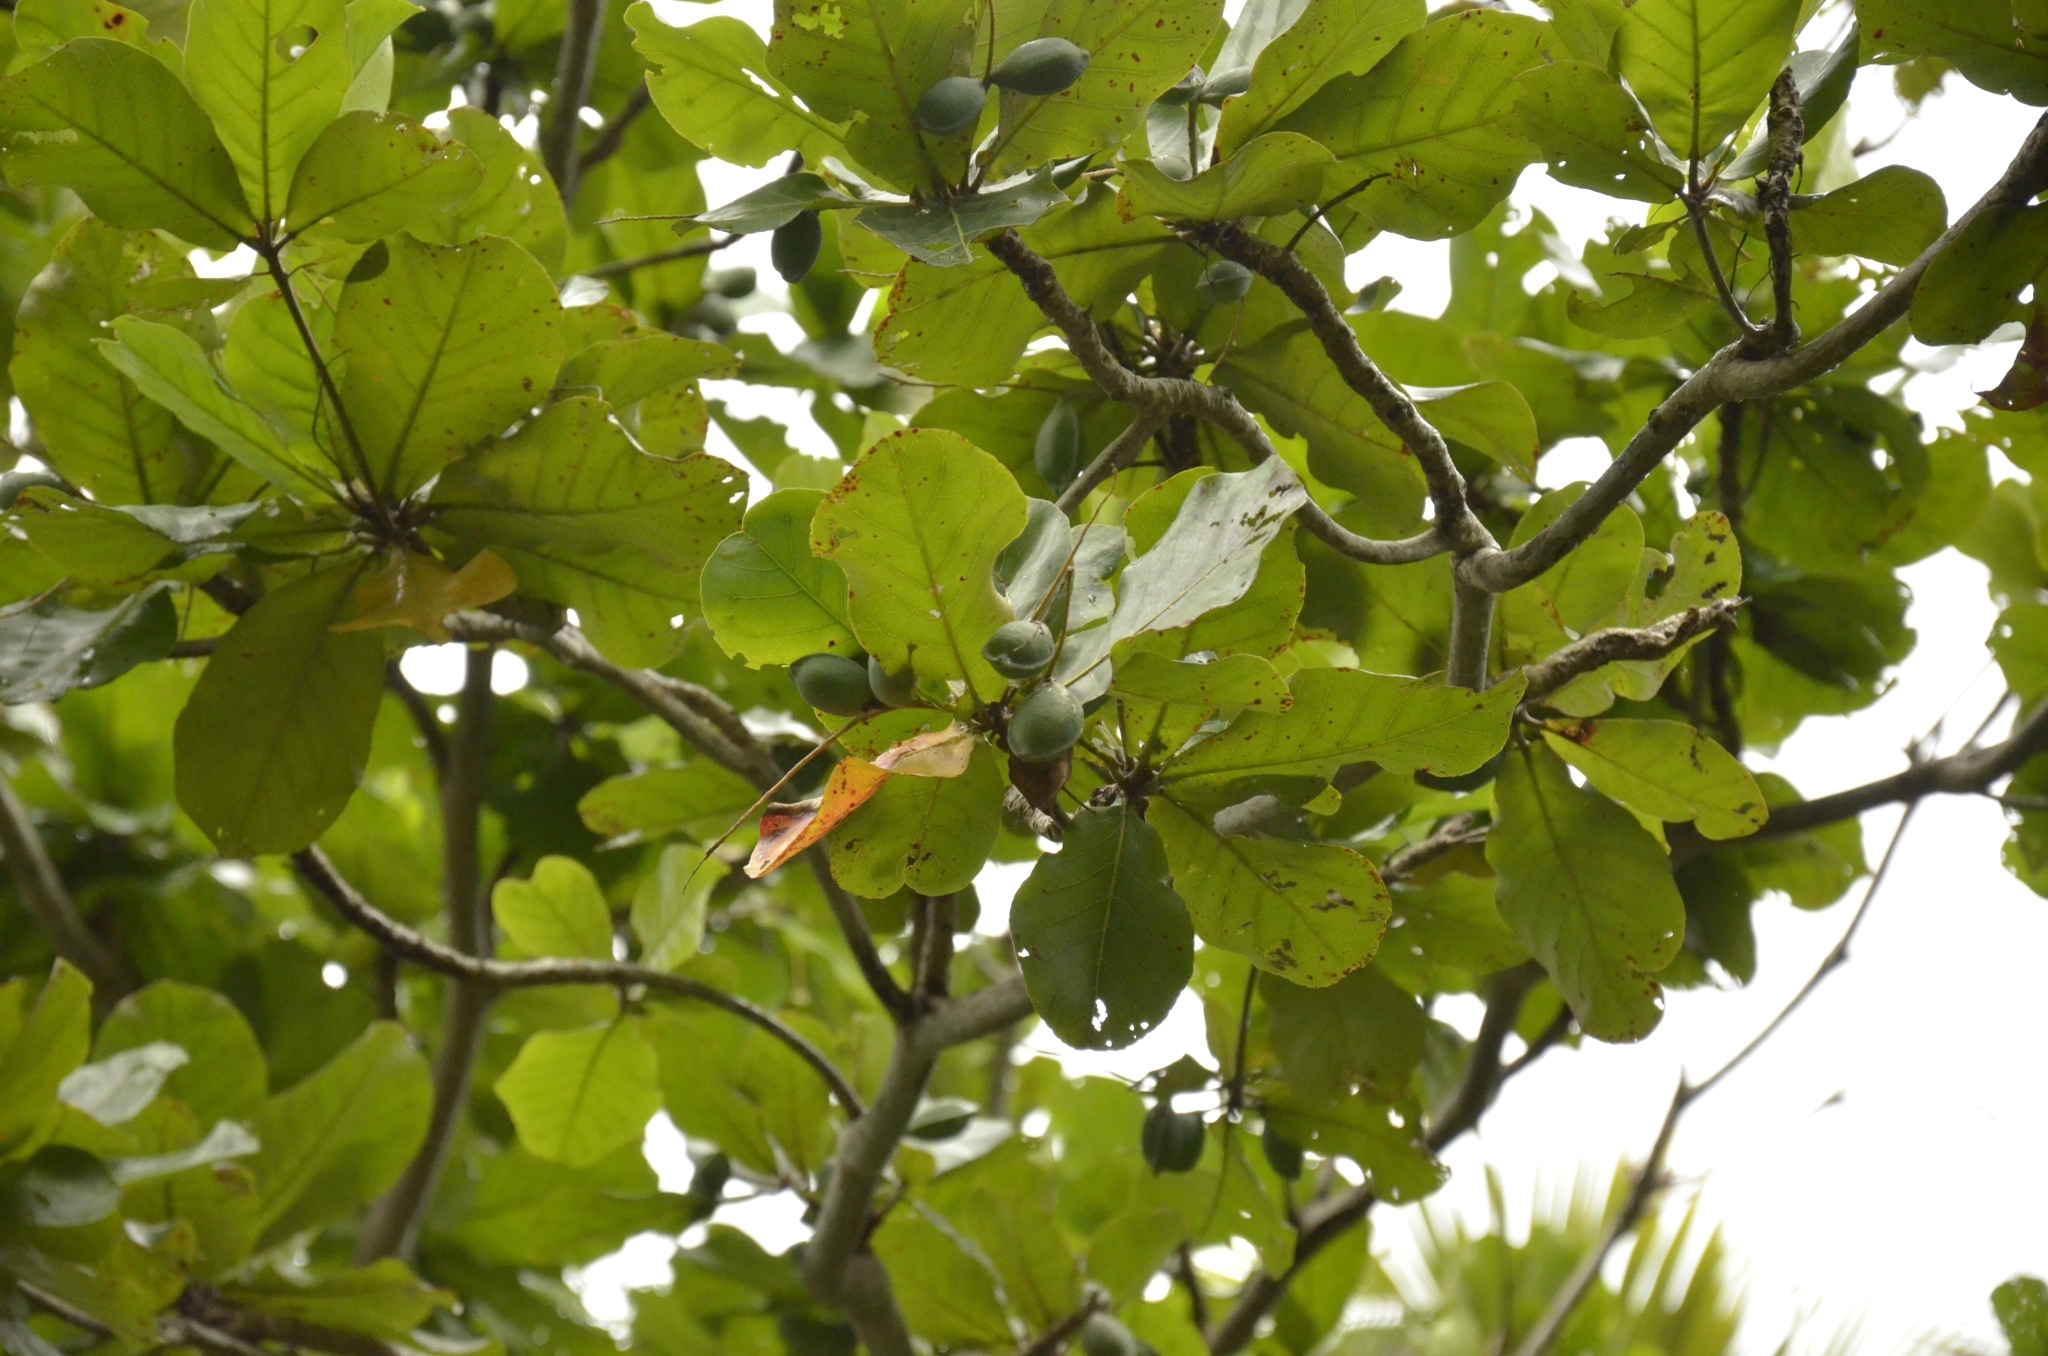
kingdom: Plantae
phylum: Tracheophyta
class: Magnoliopsida
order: Myrtales
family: Combretaceae
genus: Terminalia
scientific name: Terminalia catappa
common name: Tropical almond
